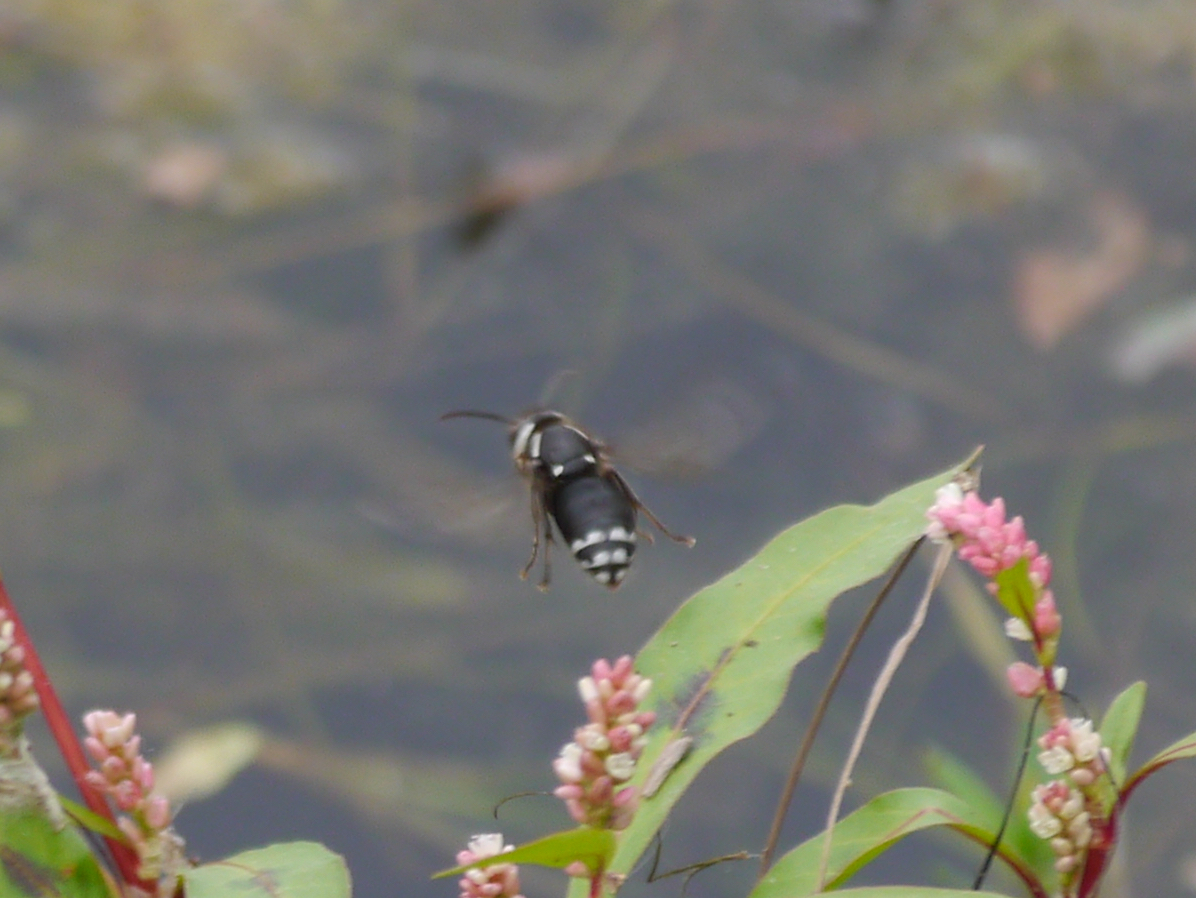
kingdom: Animalia
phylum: Arthropoda
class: Insecta
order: Hymenoptera
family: Vespidae
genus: Dolichovespula
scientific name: Dolichovespula maculata
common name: Bald-faced hornet
